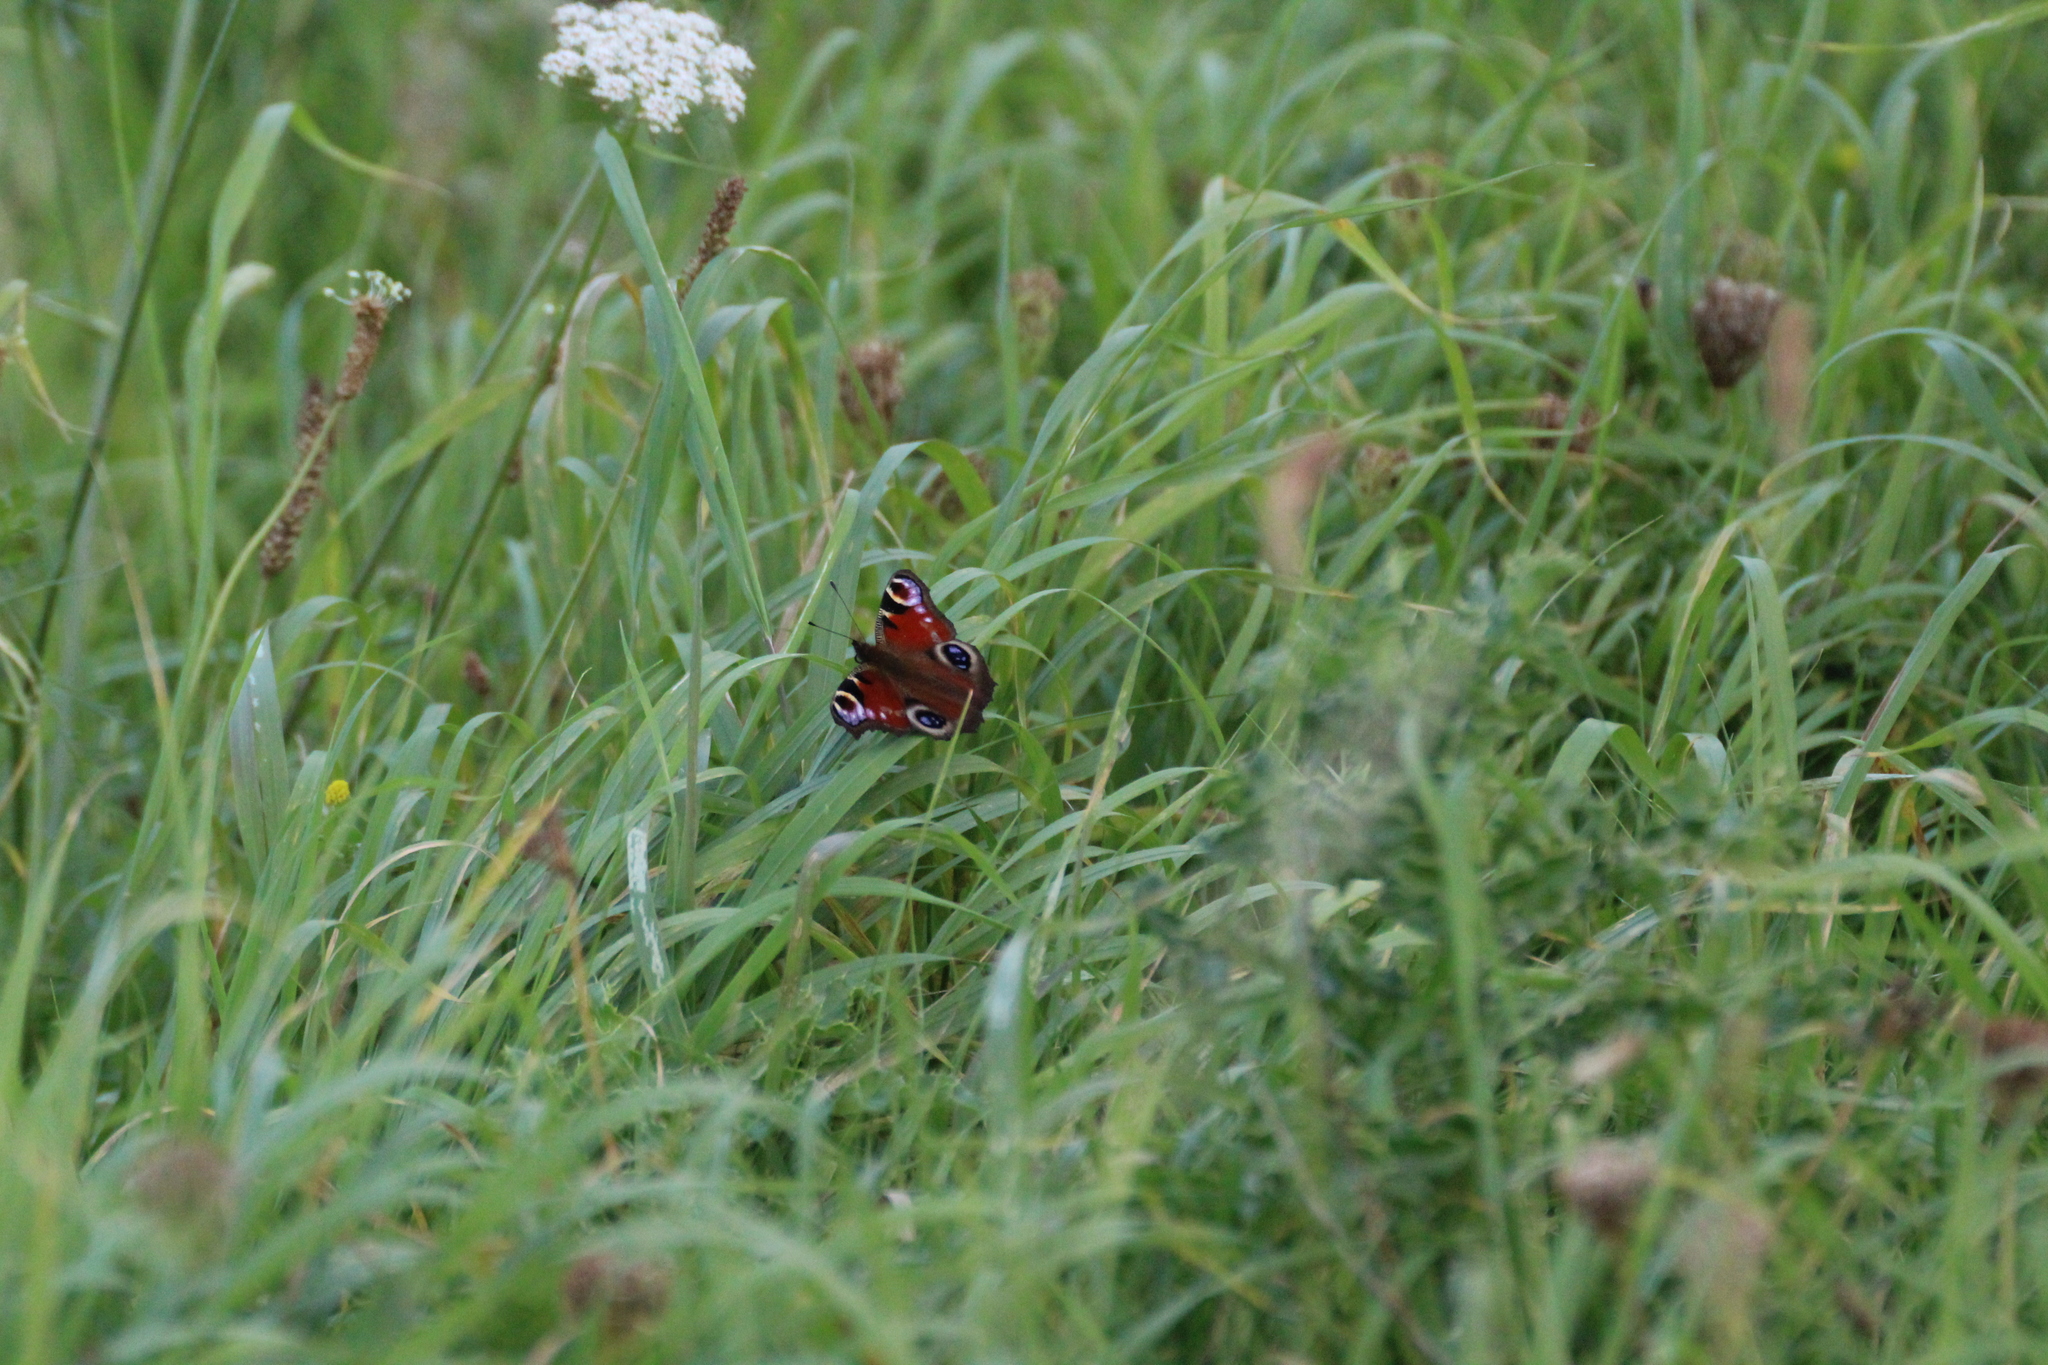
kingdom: Animalia
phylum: Arthropoda
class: Insecta
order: Lepidoptera
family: Nymphalidae
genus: Aglais
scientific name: Aglais io
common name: Peacock
